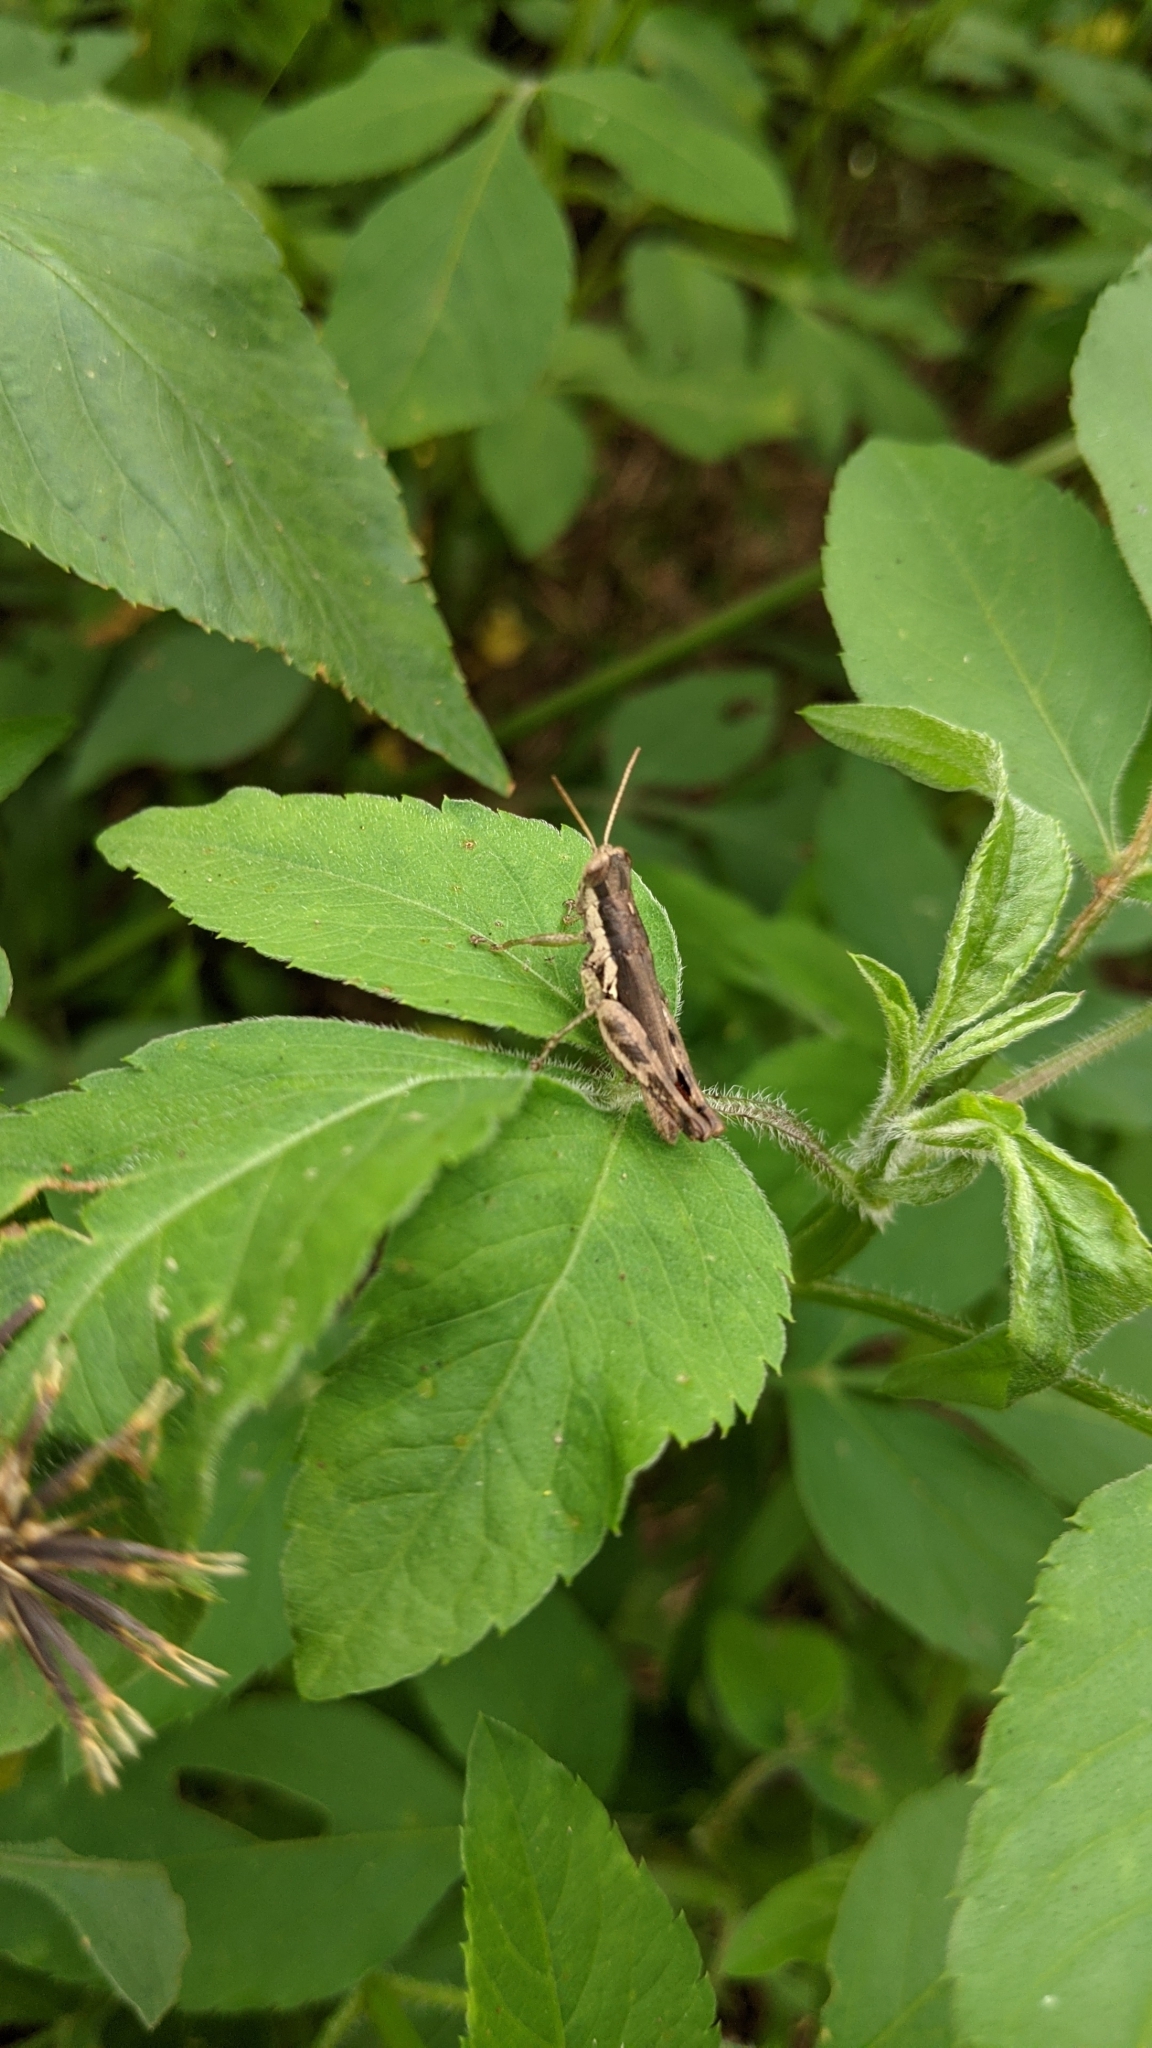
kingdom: Animalia
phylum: Arthropoda
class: Insecta
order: Orthoptera
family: Acrididae
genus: Pseudoxya
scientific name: Pseudoxya diminuta
